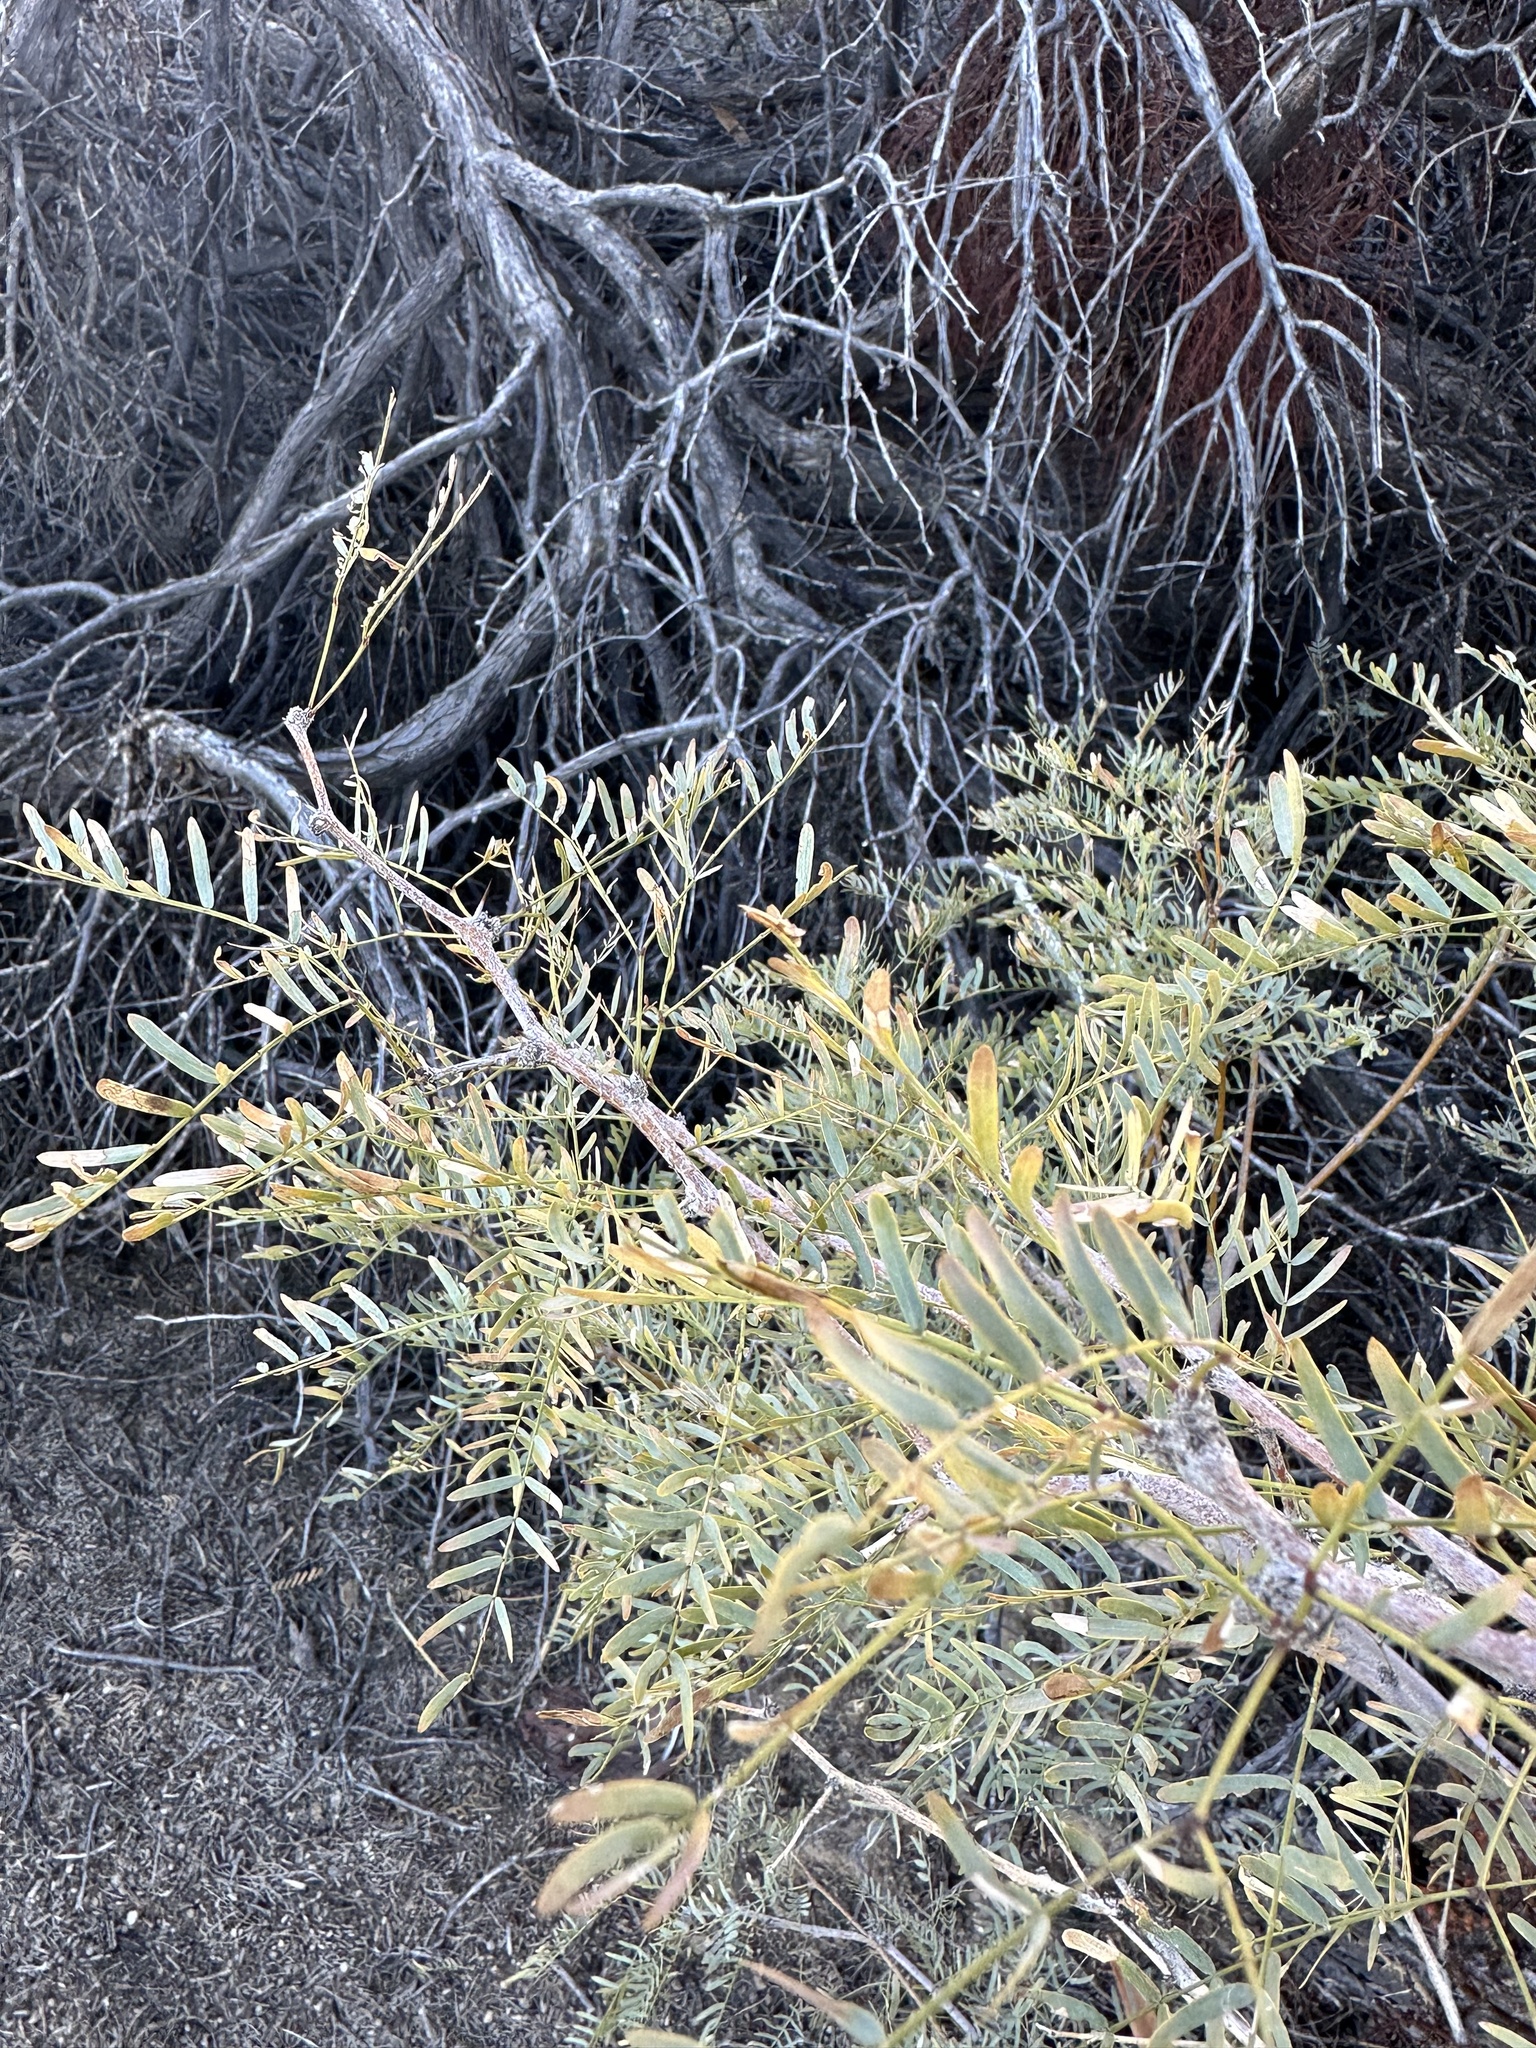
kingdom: Plantae
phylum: Tracheophyta
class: Magnoliopsida
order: Fabales
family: Fabaceae
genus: Prosopis
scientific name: Prosopis pubescens
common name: Screw-bean
